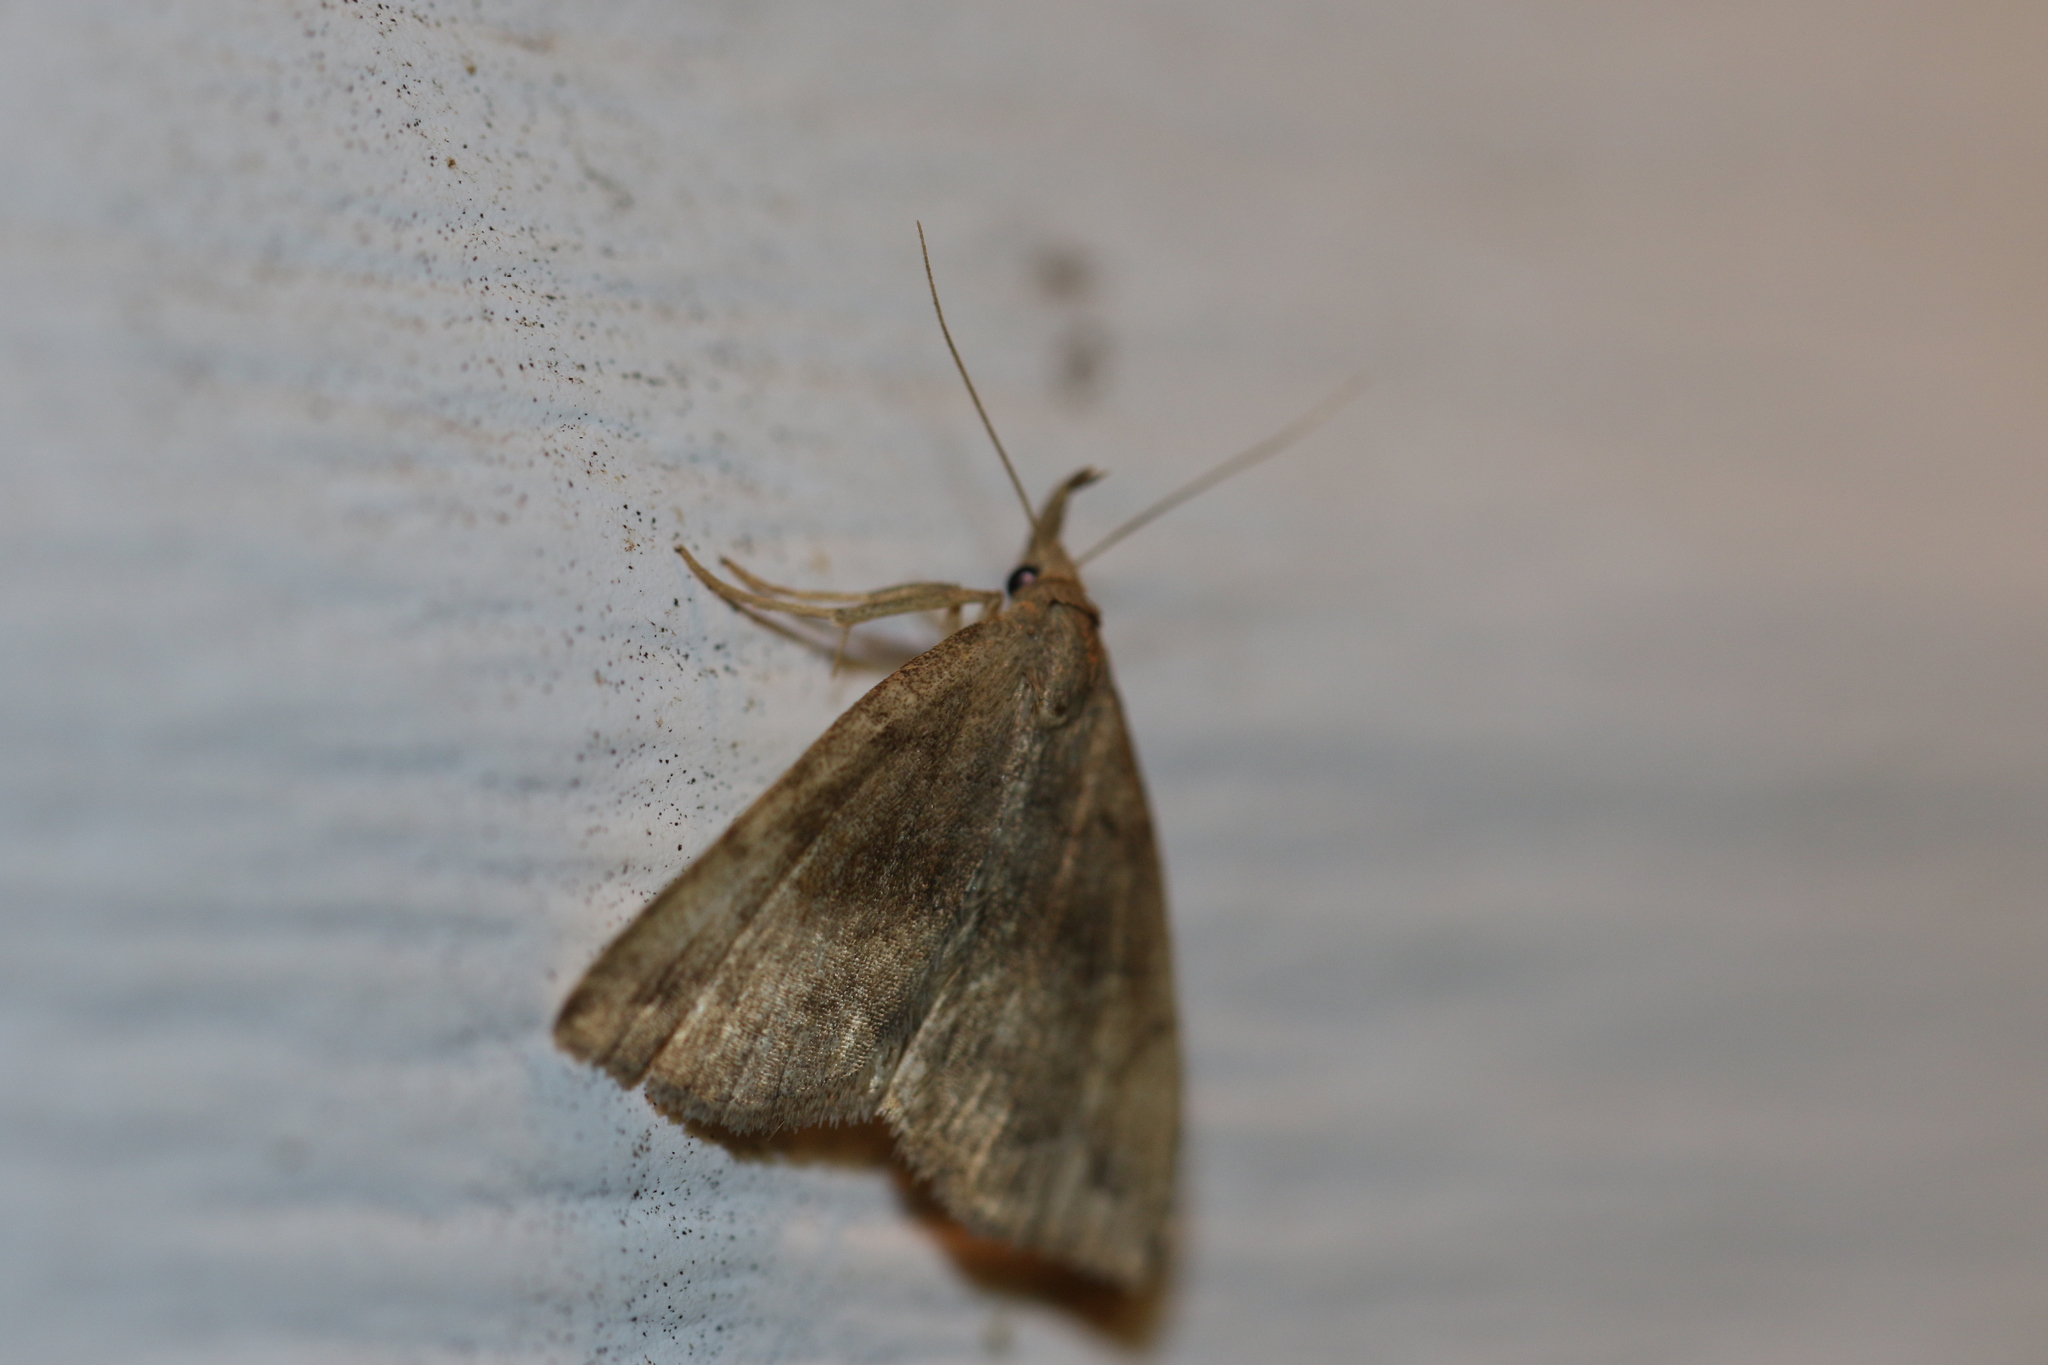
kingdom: Animalia
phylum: Arthropoda
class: Insecta
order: Lepidoptera
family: Erebidae
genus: Phalaenostola
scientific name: Phalaenostola eumelusalis
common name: Dark phalaenostola moth
